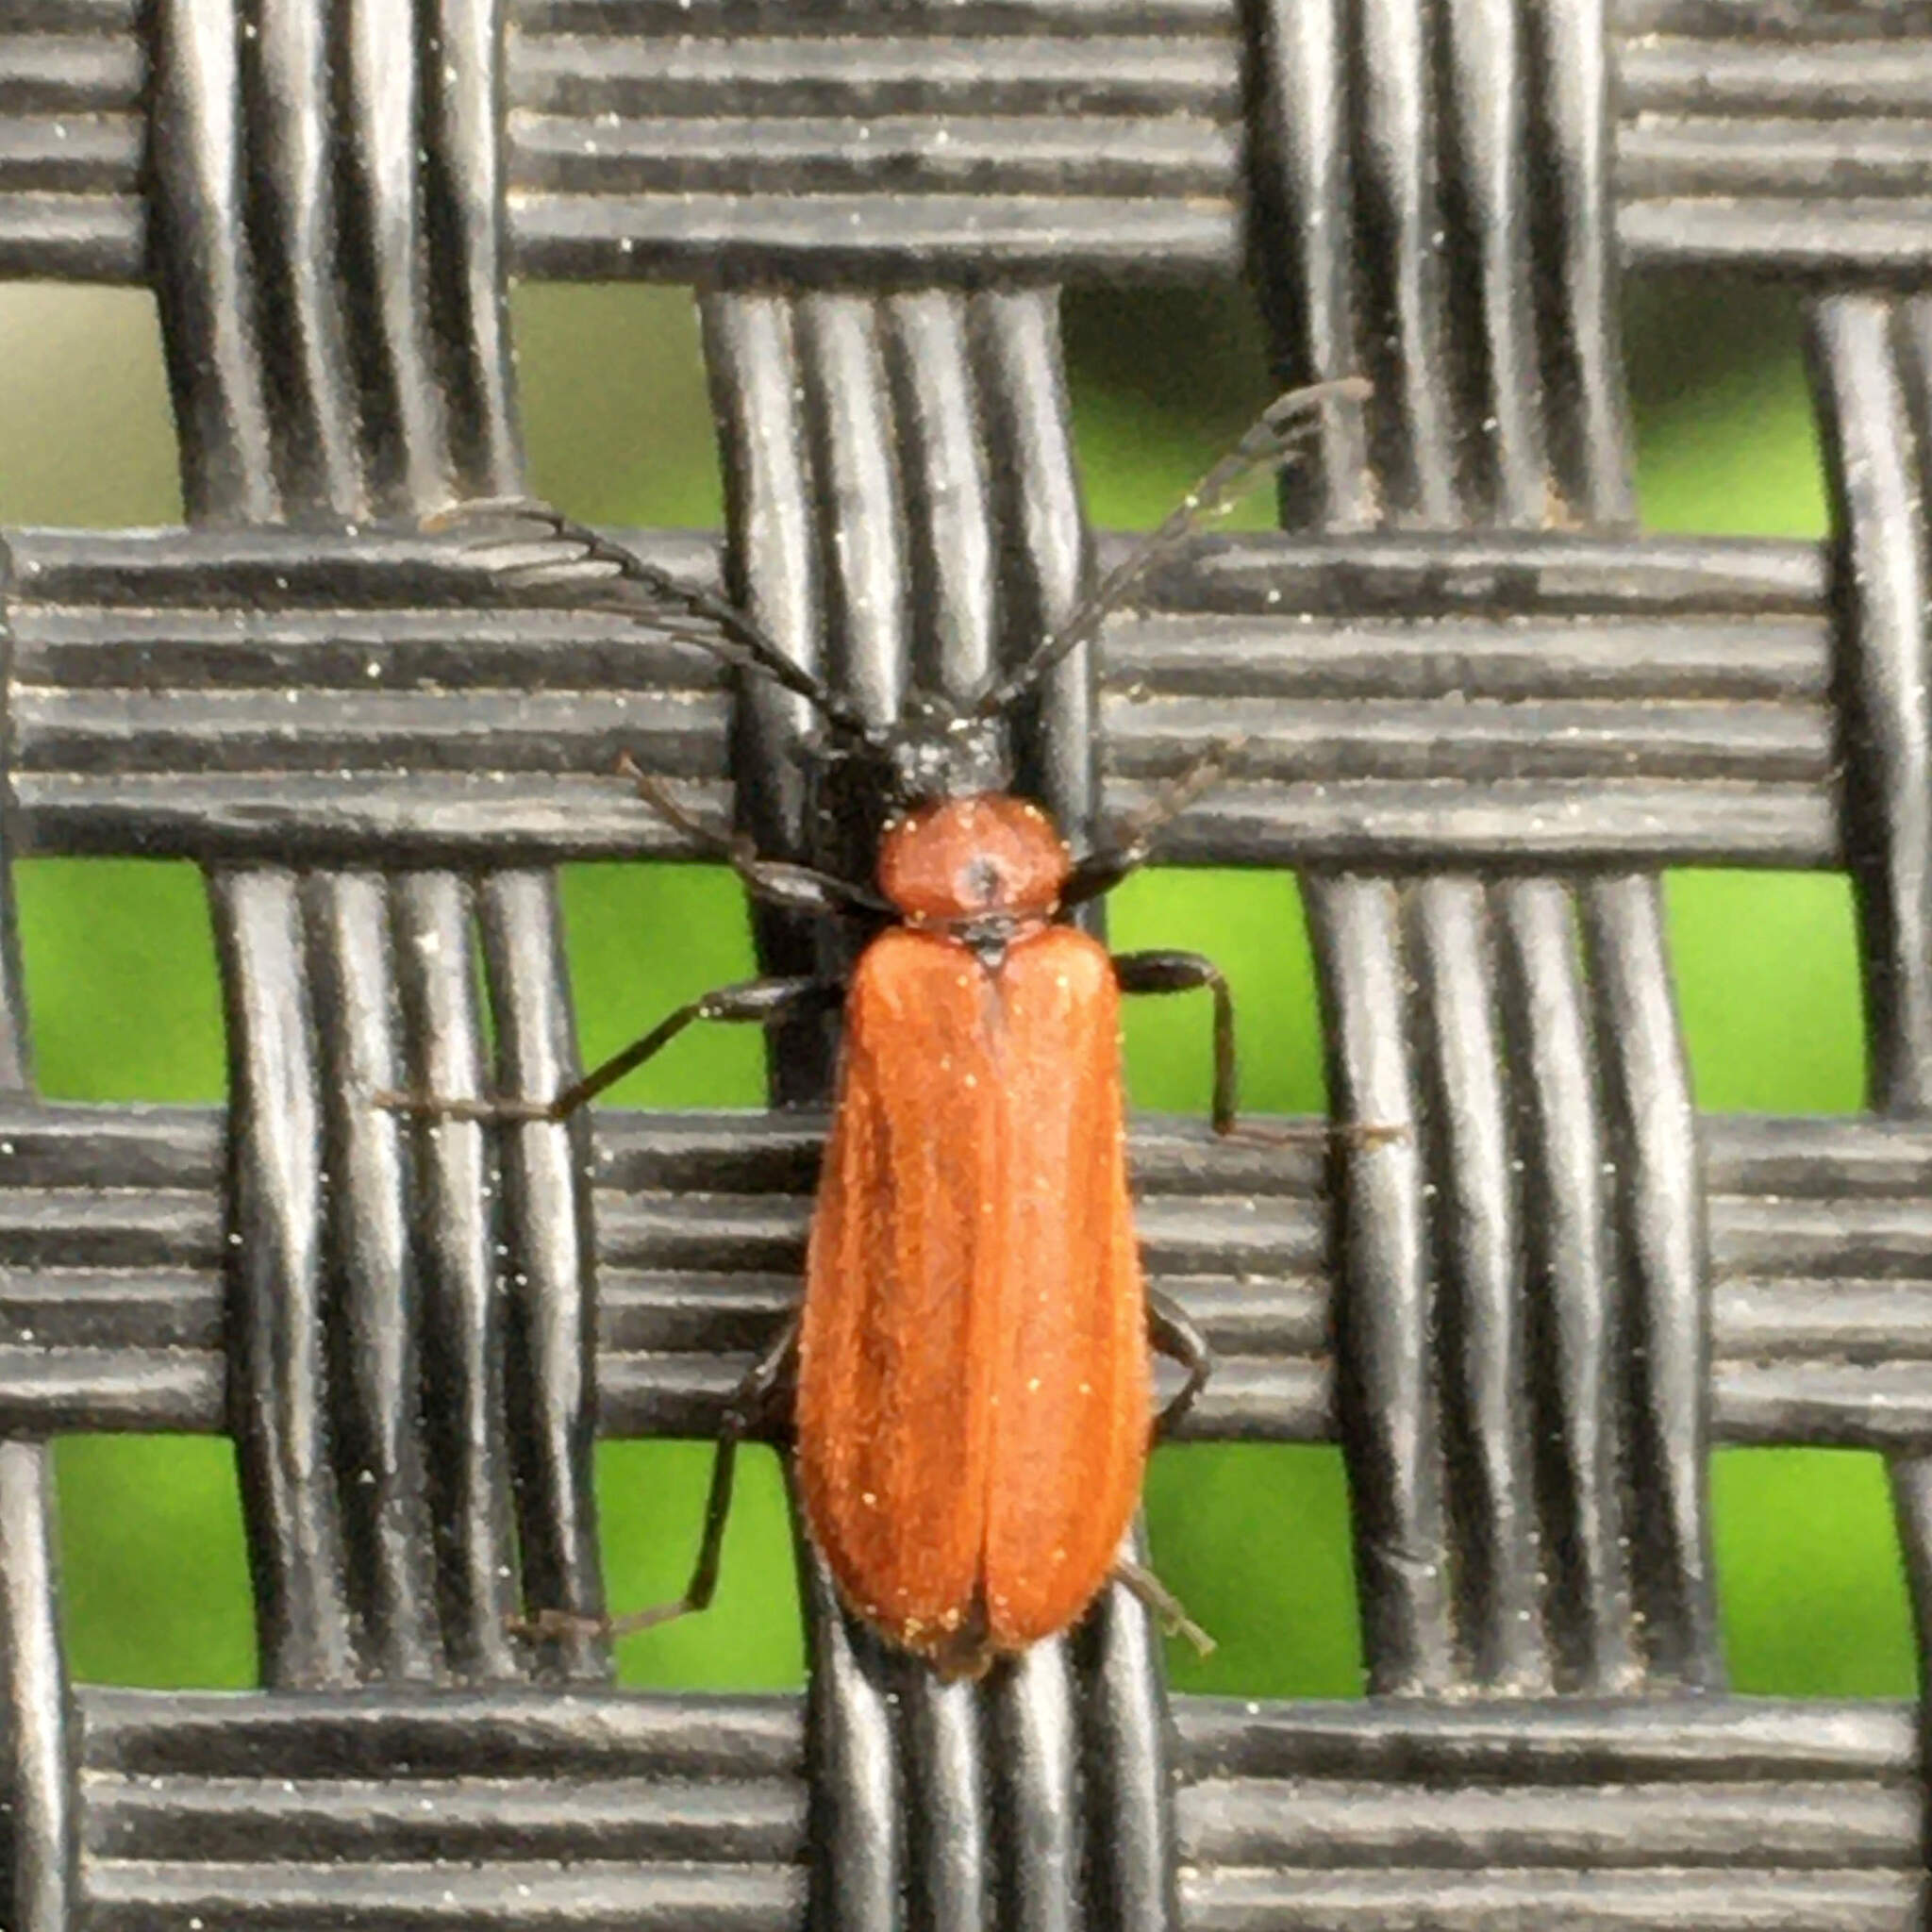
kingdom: Animalia
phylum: Arthropoda
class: Insecta
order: Coleoptera
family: Pyrochroidae
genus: Schizotus
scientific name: Schizotus pectinicornis
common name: Scarce cardinal beetle
